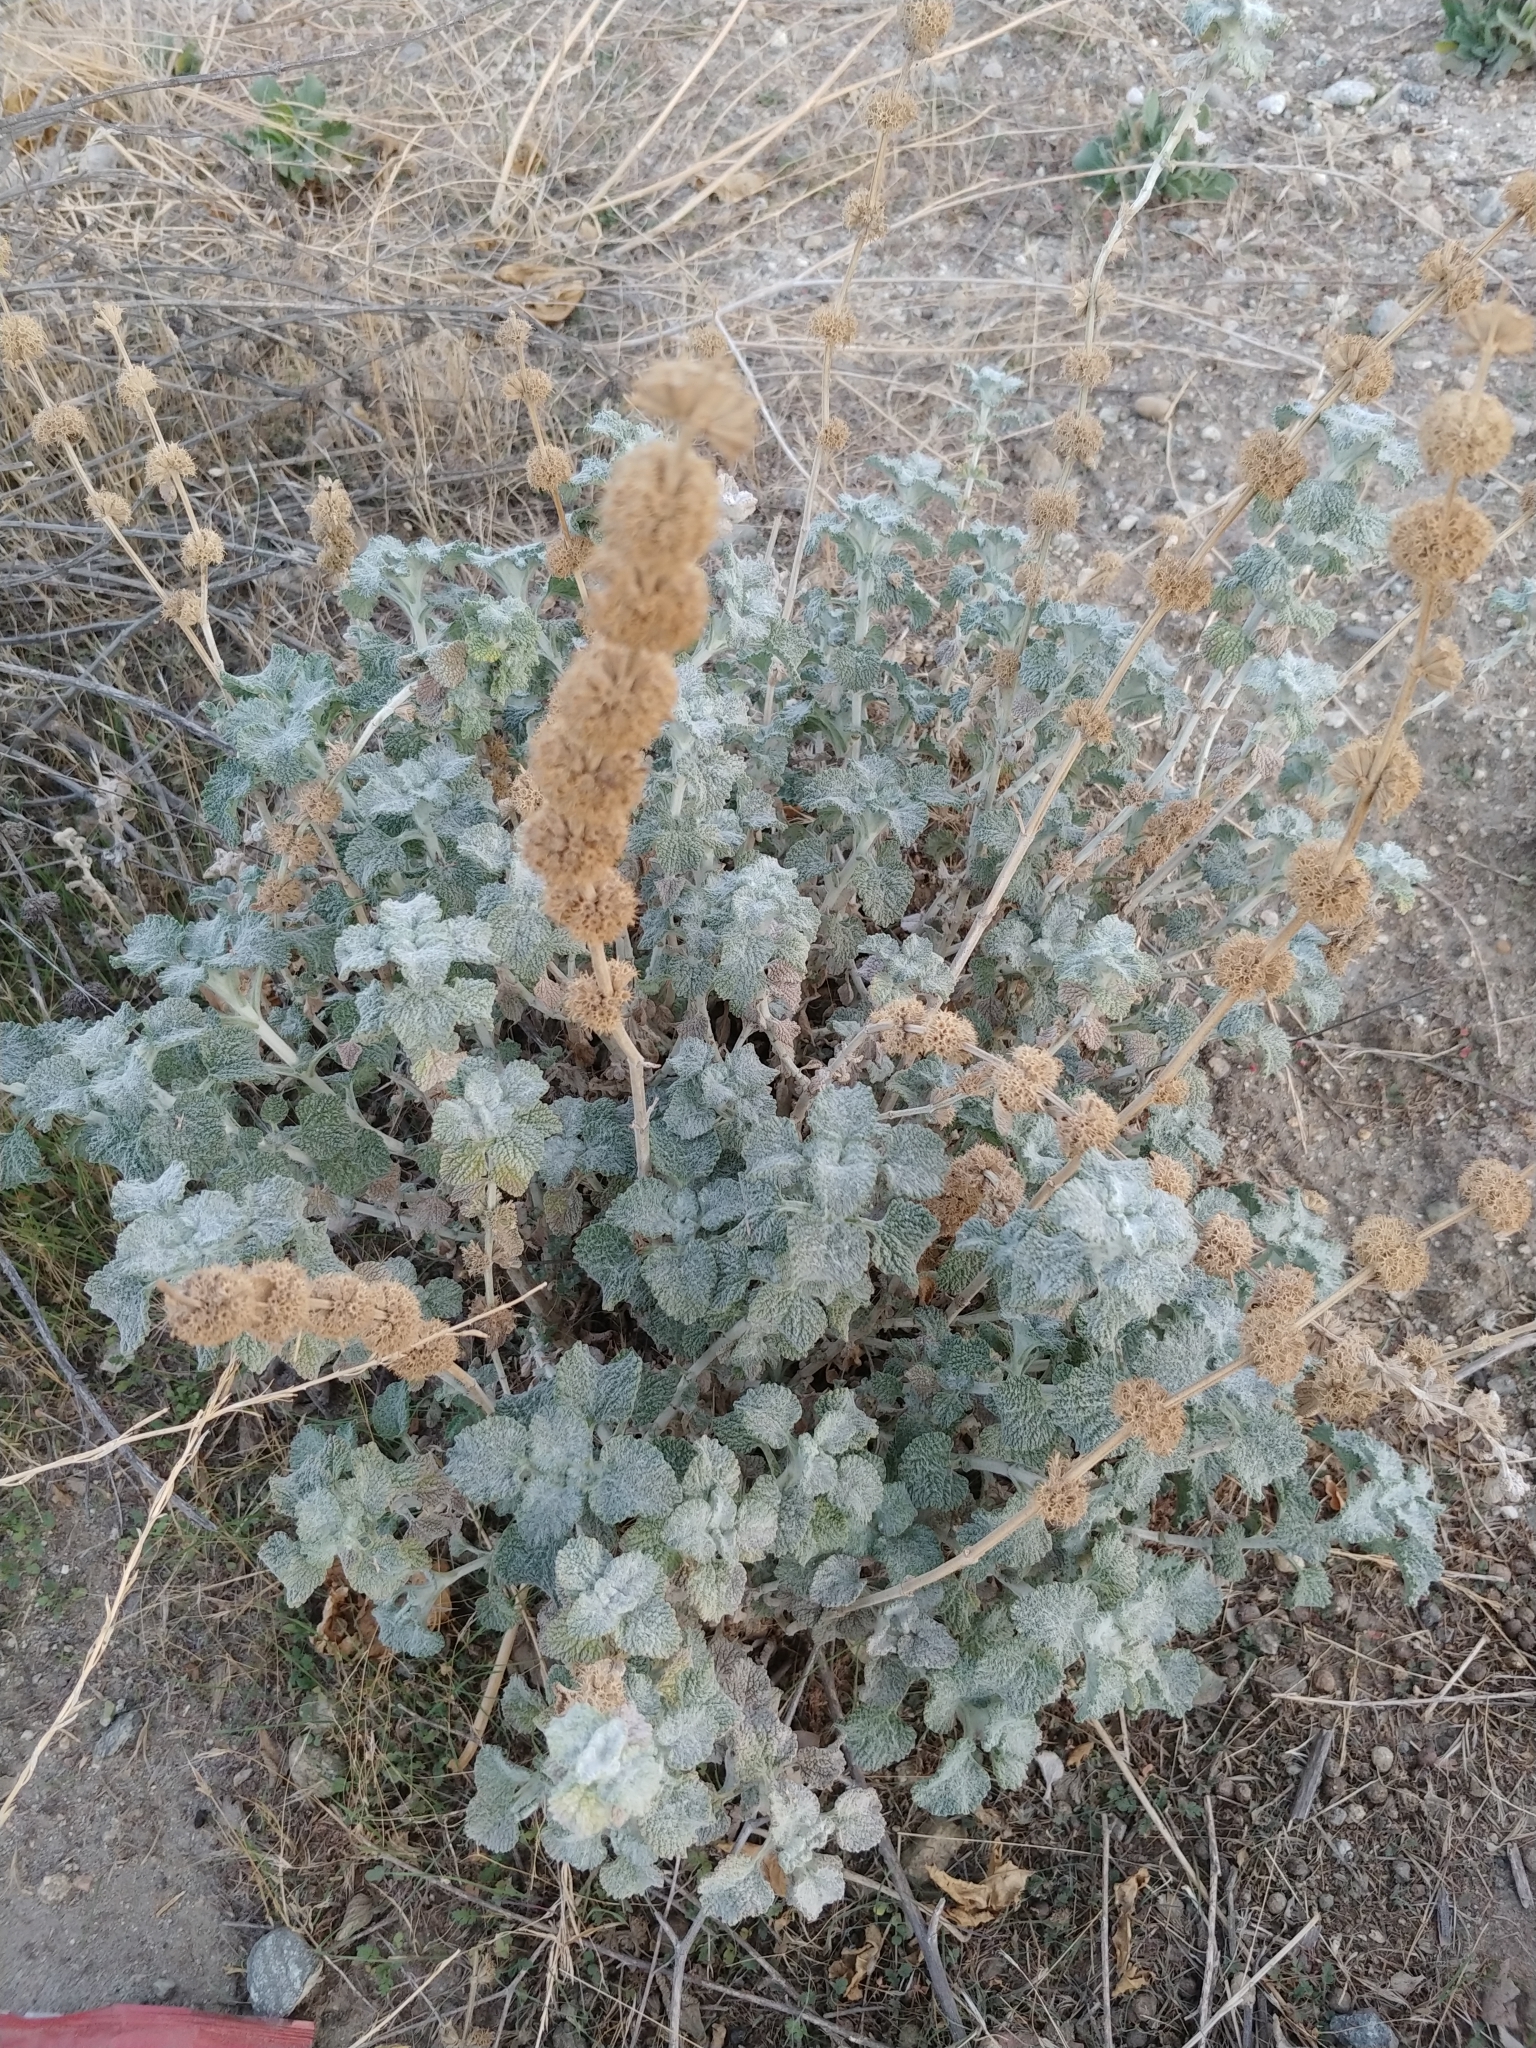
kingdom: Plantae
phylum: Tracheophyta
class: Magnoliopsida
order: Lamiales
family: Lamiaceae
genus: Marrubium
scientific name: Marrubium vulgare
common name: Horehound
